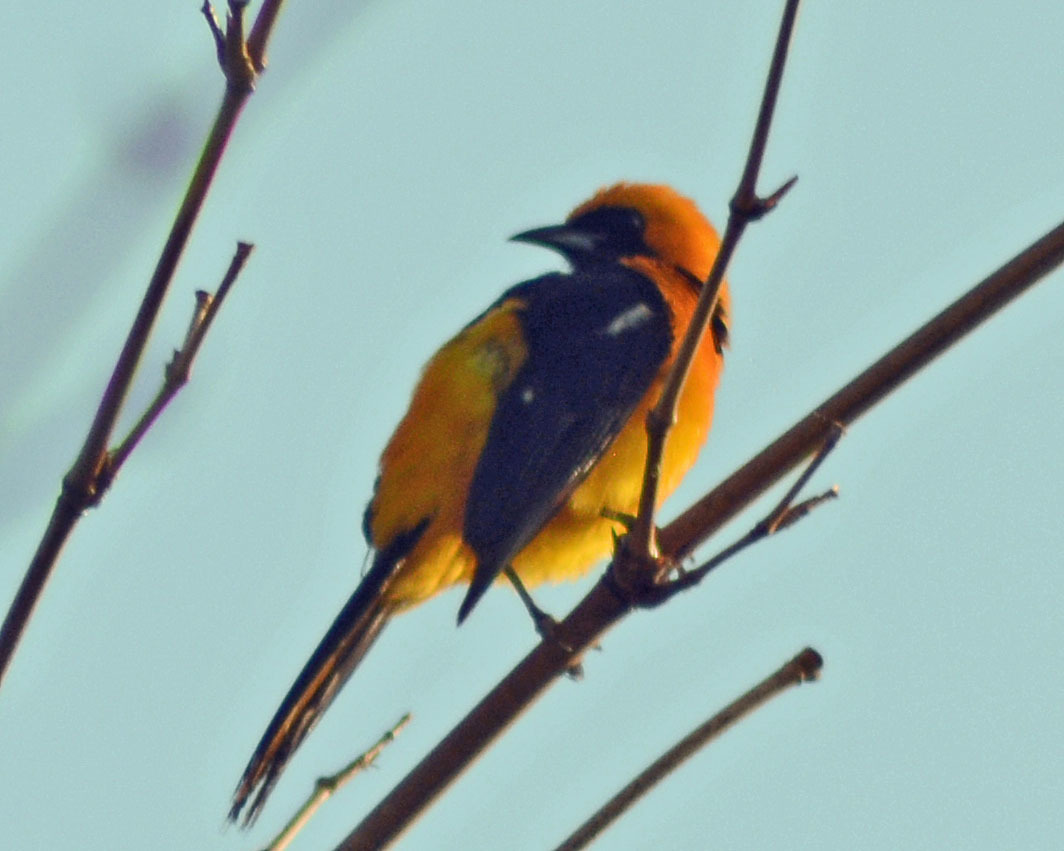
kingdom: Animalia
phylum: Chordata
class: Aves
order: Passeriformes
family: Icteridae
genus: Icterus
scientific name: Icterus cucullatus
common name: Hooded oriole
